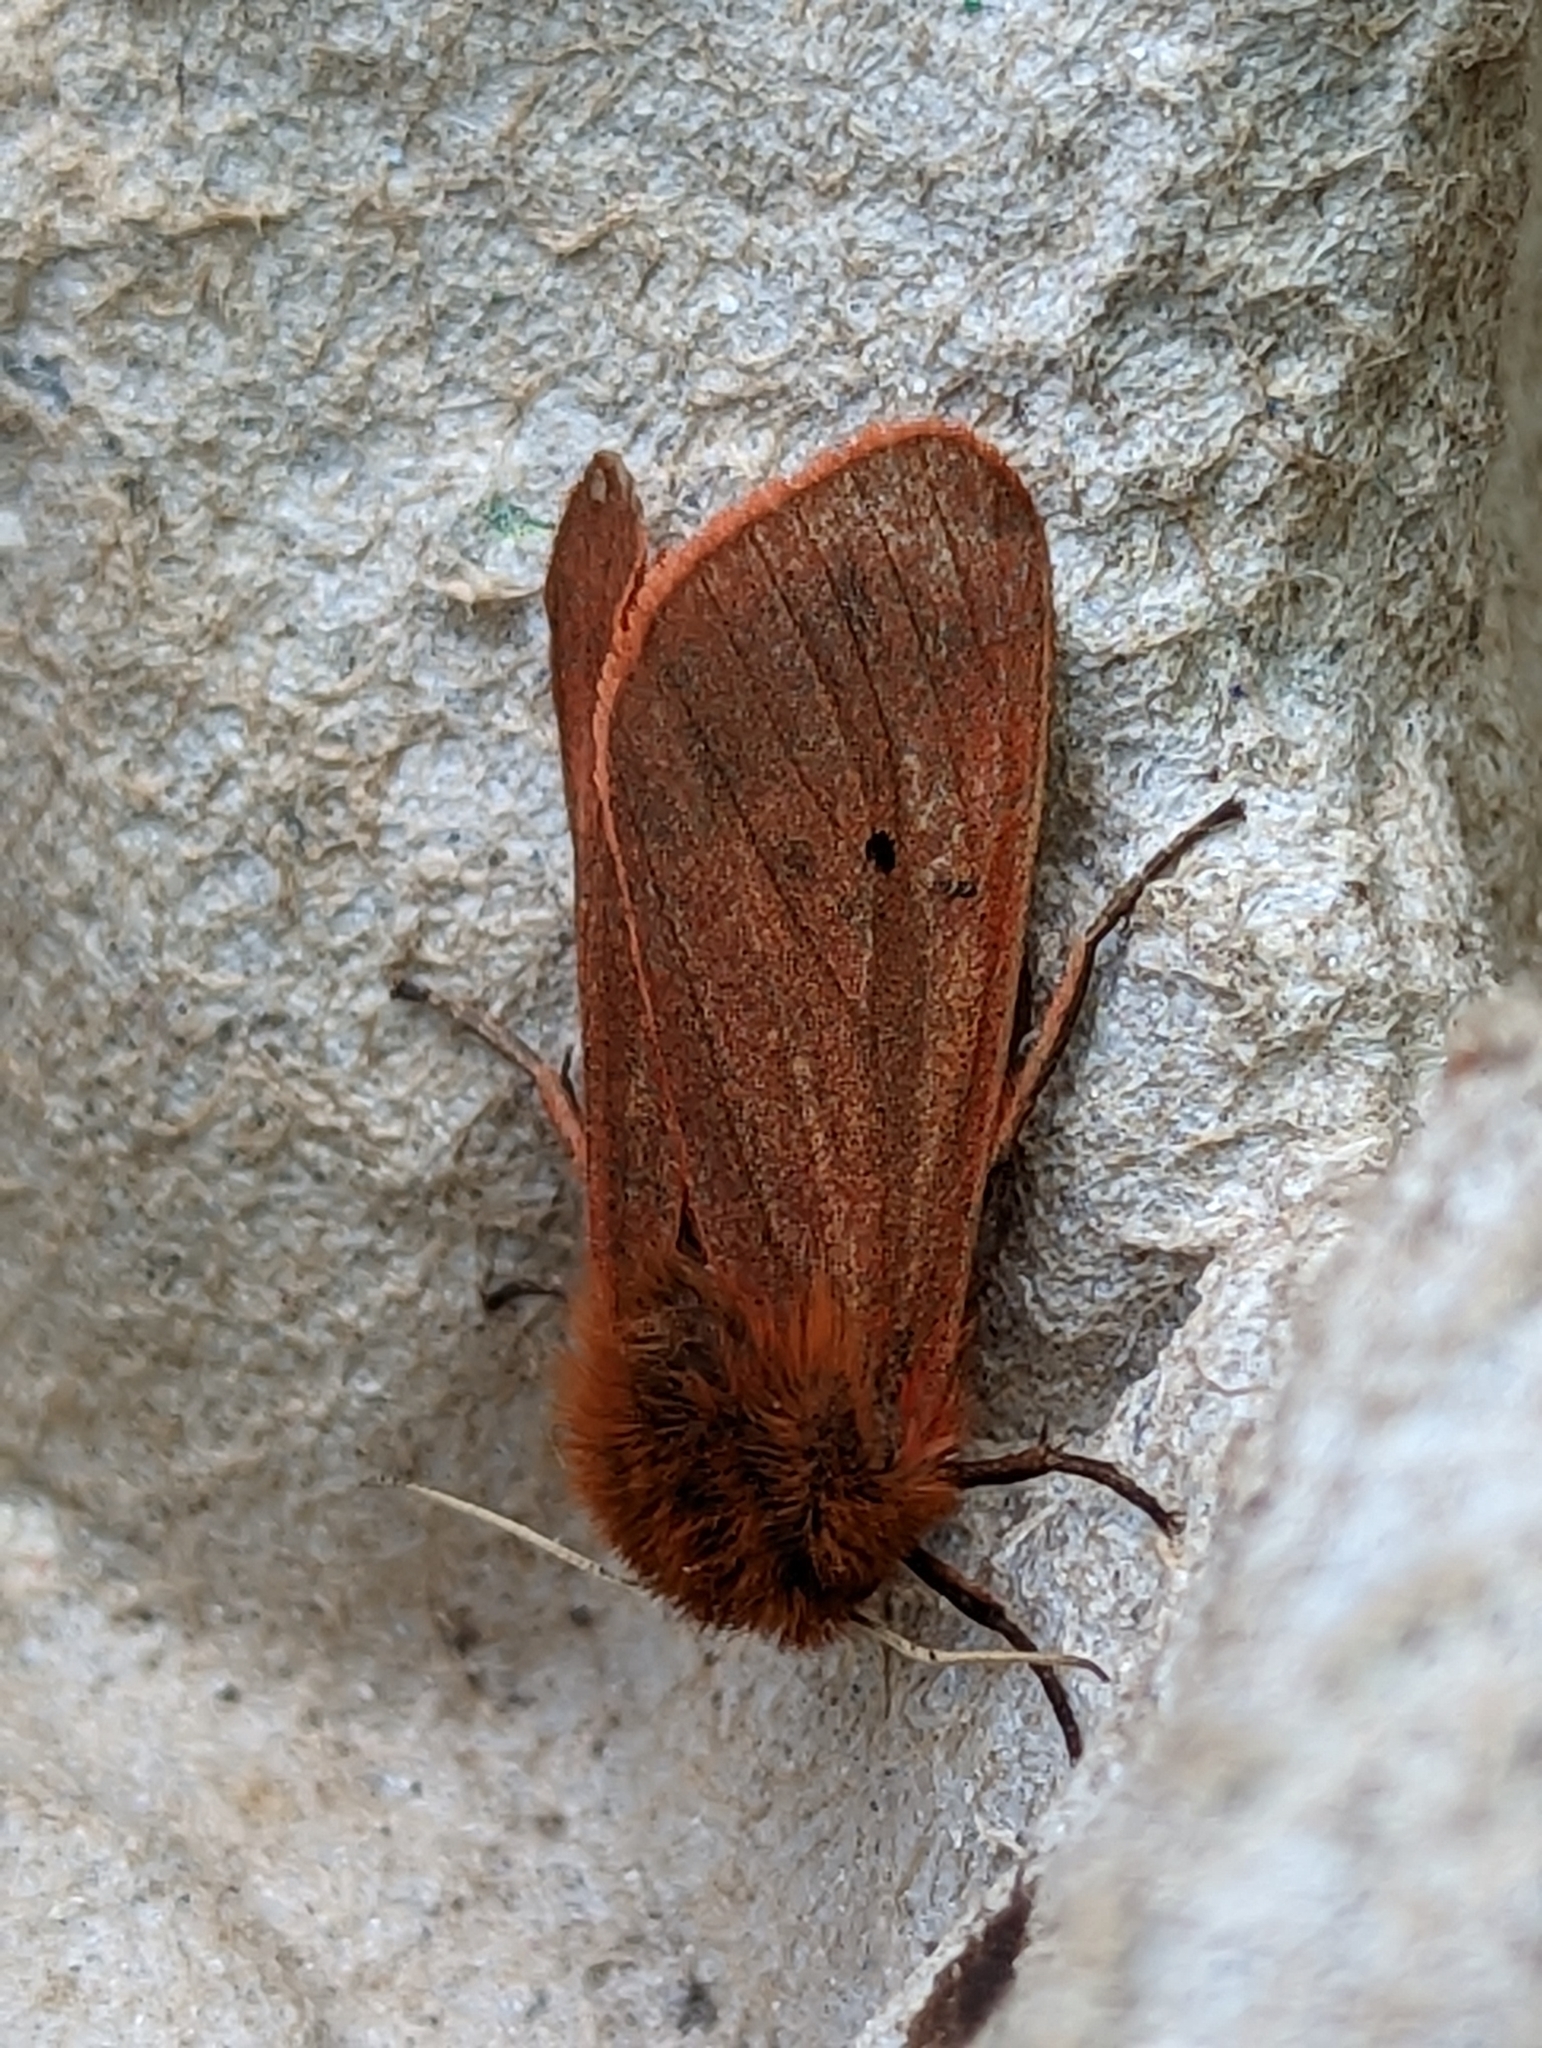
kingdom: Animalia
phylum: Arthropoda
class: Insecta
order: Lepidoptera
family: Erebidae
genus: Phragmatobia
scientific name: Phragmatobia fuliginosa
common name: Ruby tiger
